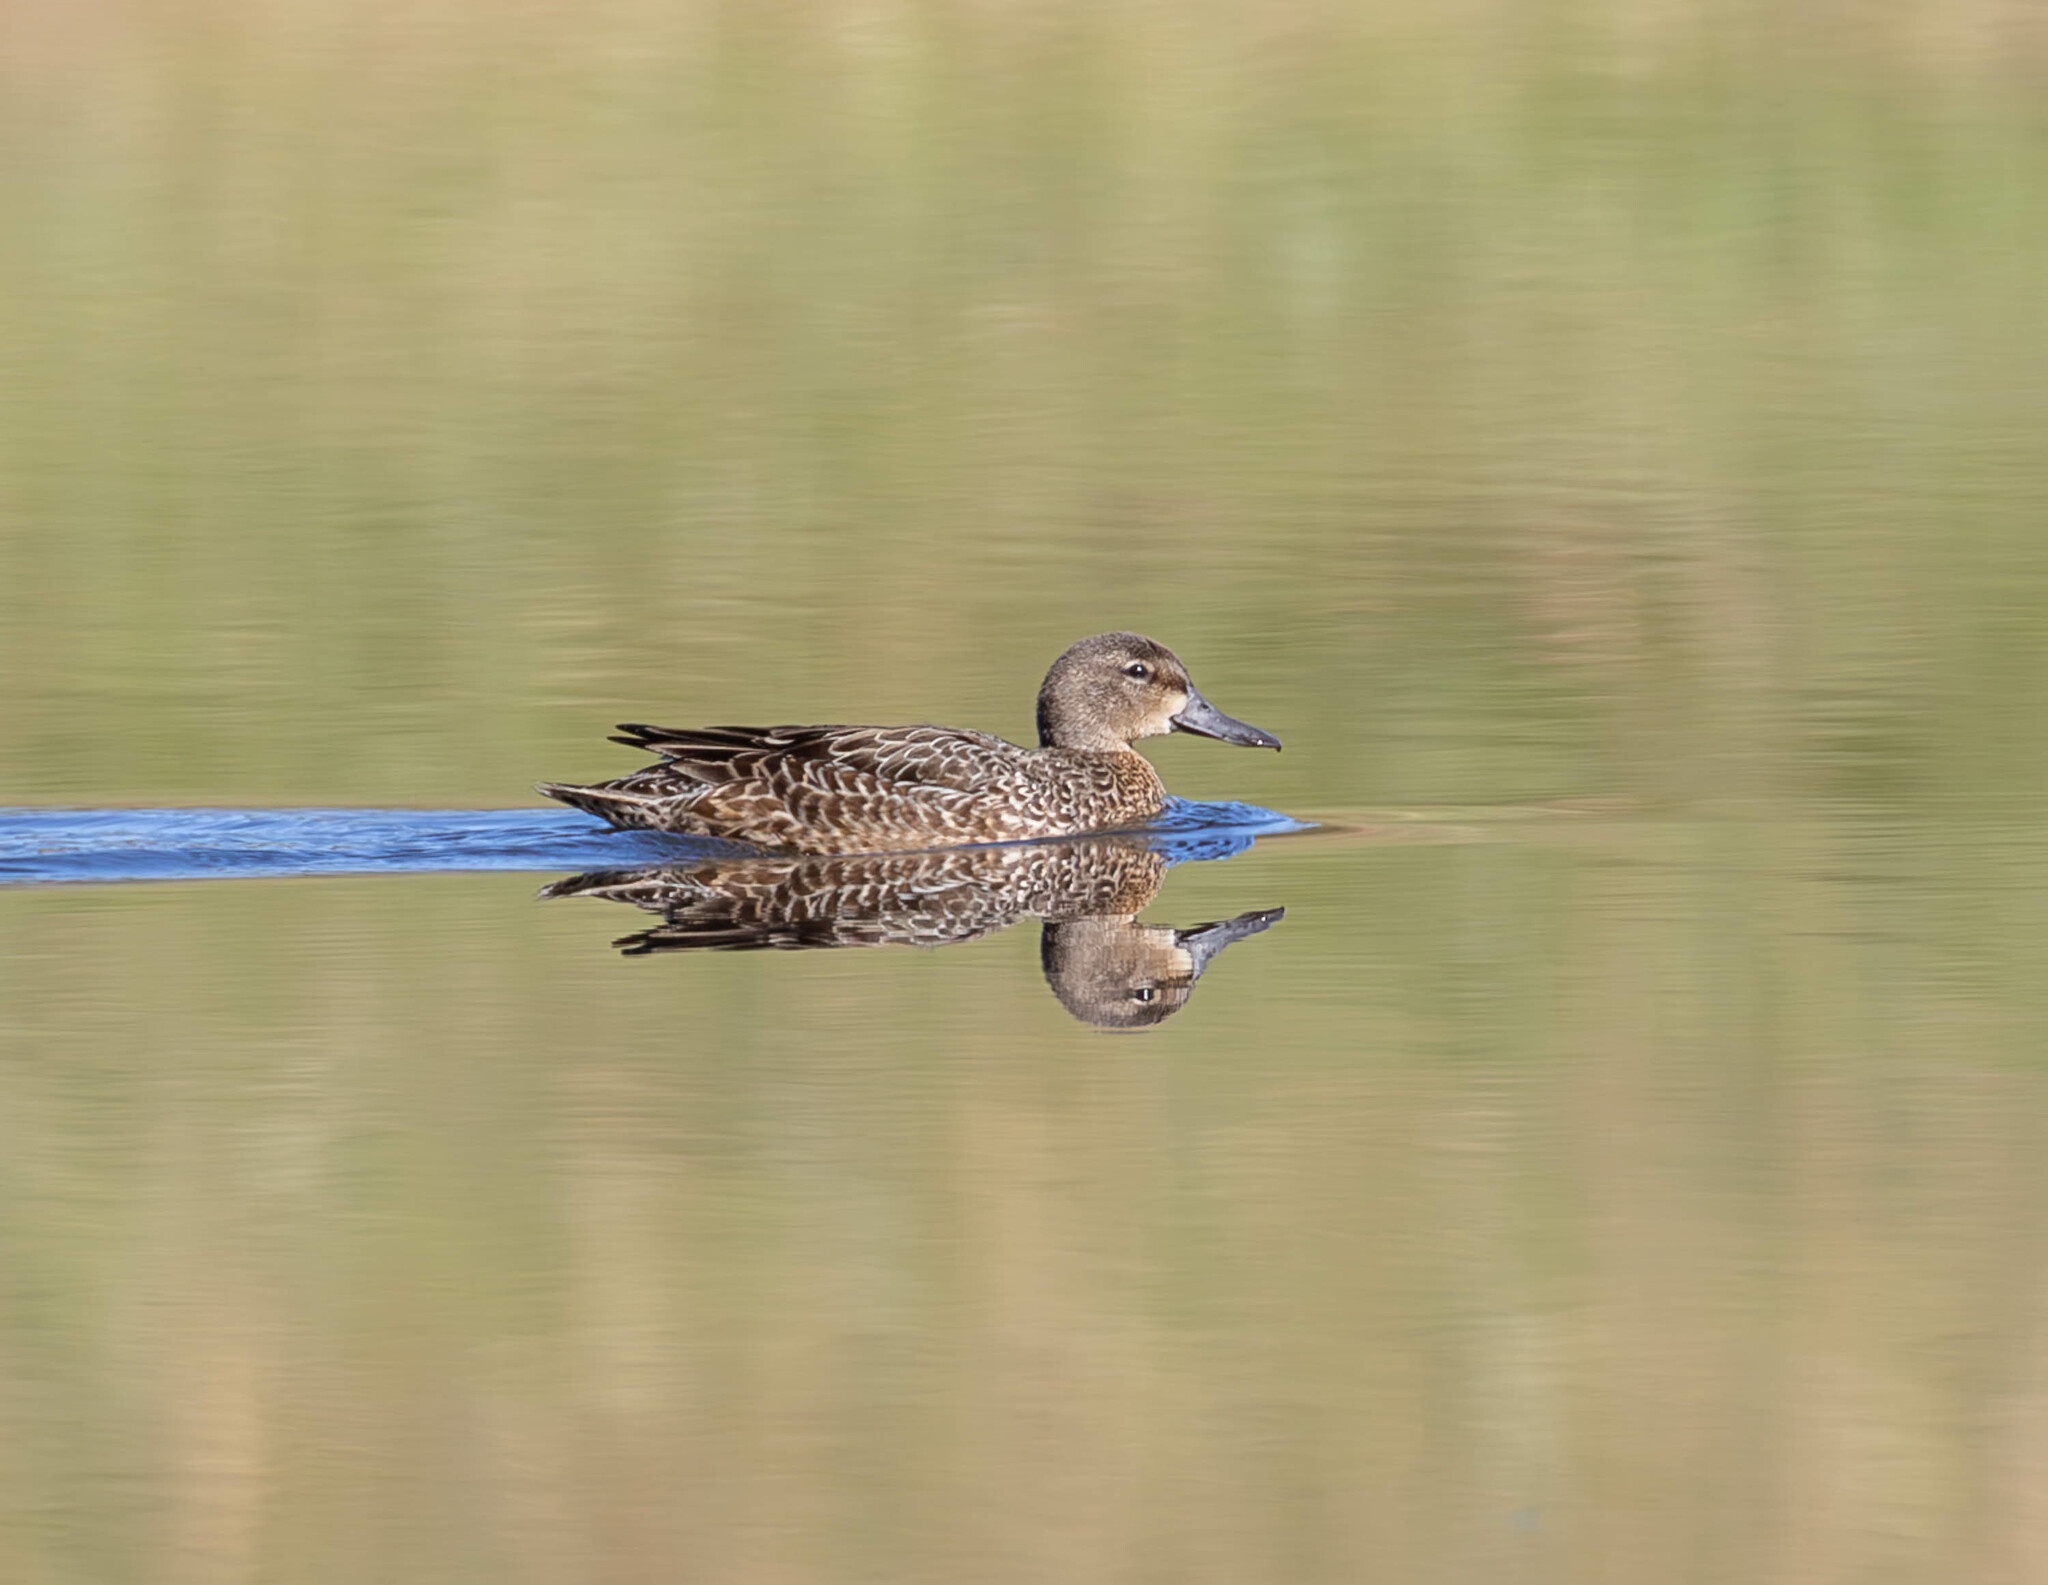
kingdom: Animalia
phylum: Chordata
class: Aves
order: Anseriformes
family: Anatidae
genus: Spatula
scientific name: Spatula discors
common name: Blue-winged teal
